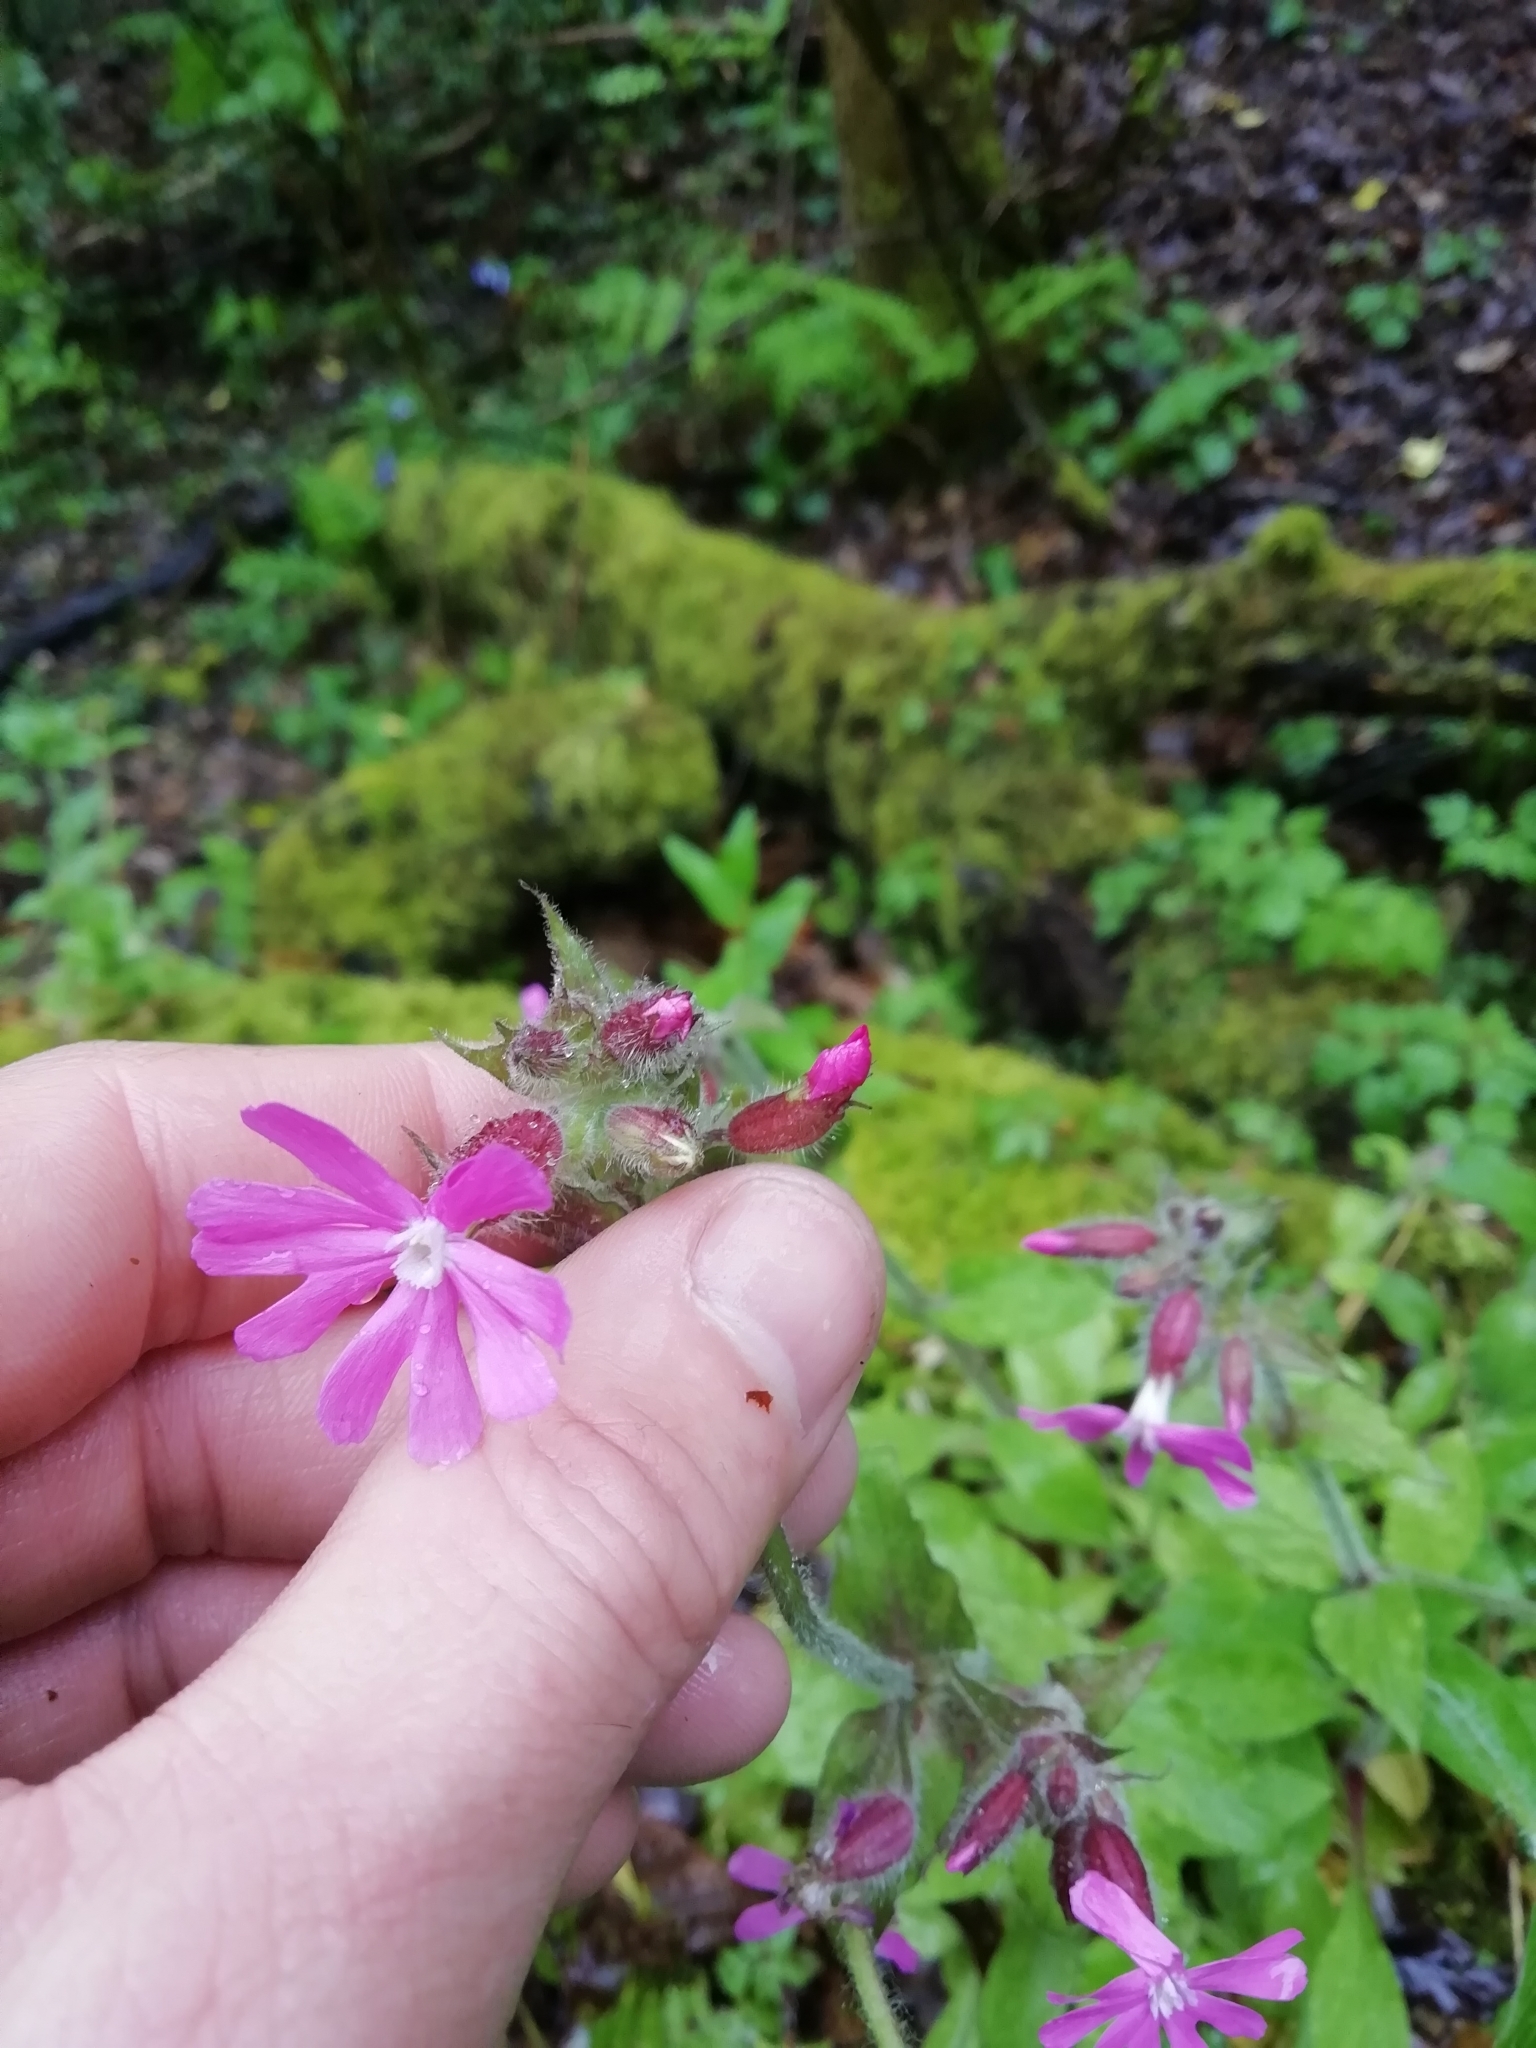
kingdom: Plantae
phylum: Tracheophyta
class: Magnoliopsida
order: Caryophyllales
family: Caryophyllaceae
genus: Silene
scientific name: Silene dioica
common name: Red campion
